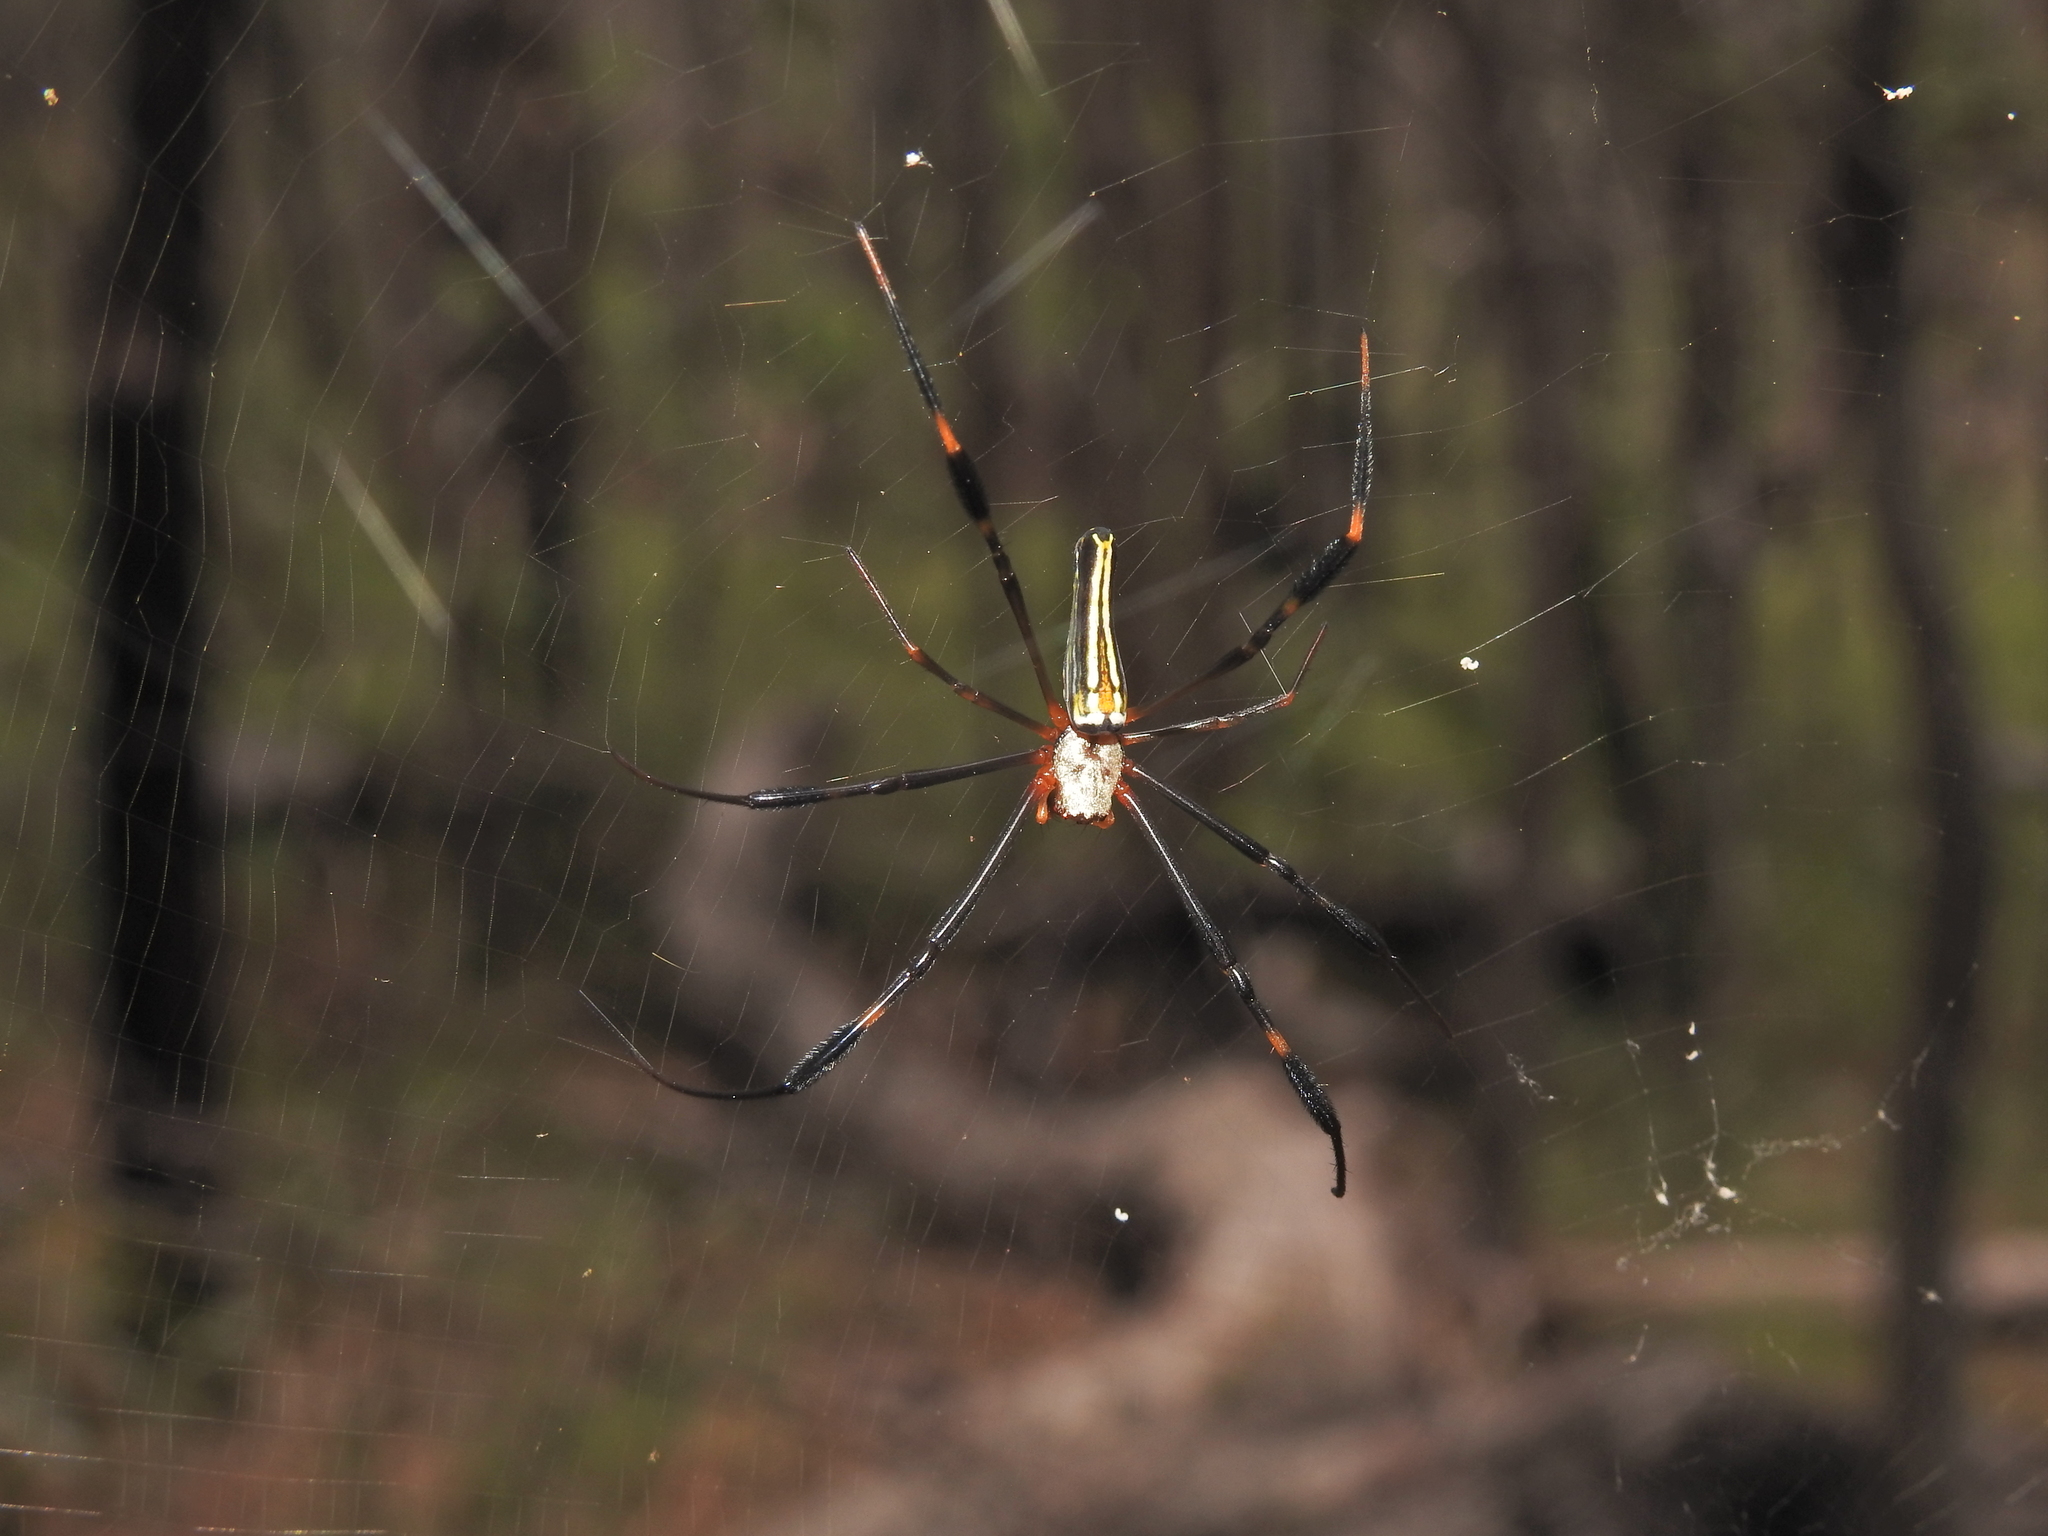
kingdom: Animalia
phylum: Arthropoda
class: Arachnida
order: Araneae
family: Araneidae
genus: Nephila
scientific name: Nephila pilipes
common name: Giant golden orb weaver
